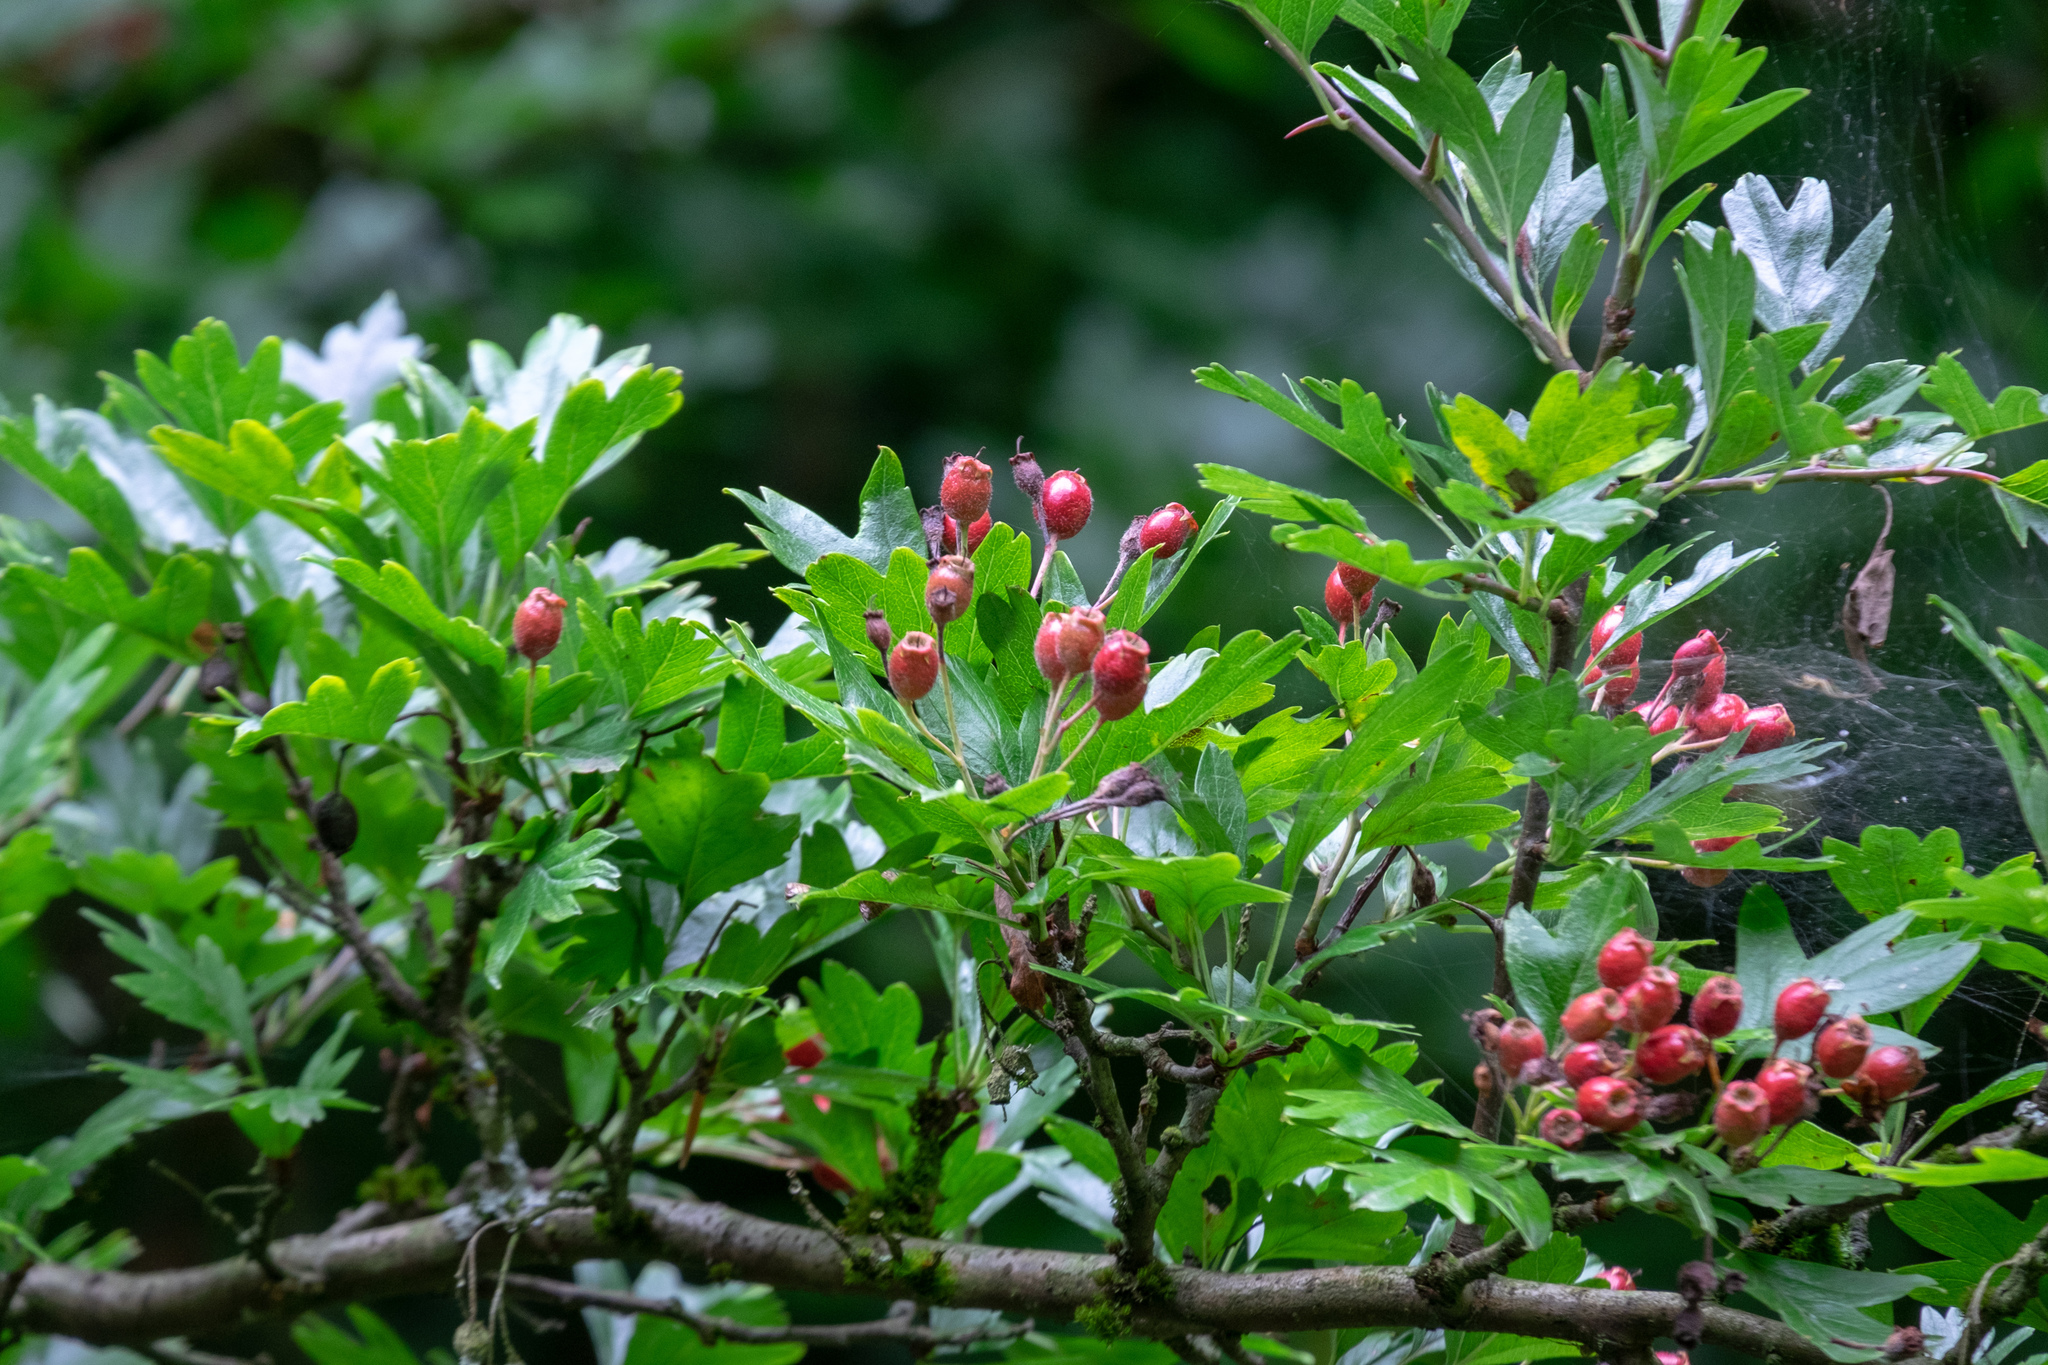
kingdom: Plantae
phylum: Tracheophyta
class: Magnoliopsida
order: Rosales
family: Rosaceae
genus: Crataegus
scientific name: Crataegus monogyna
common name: Hawthorn
